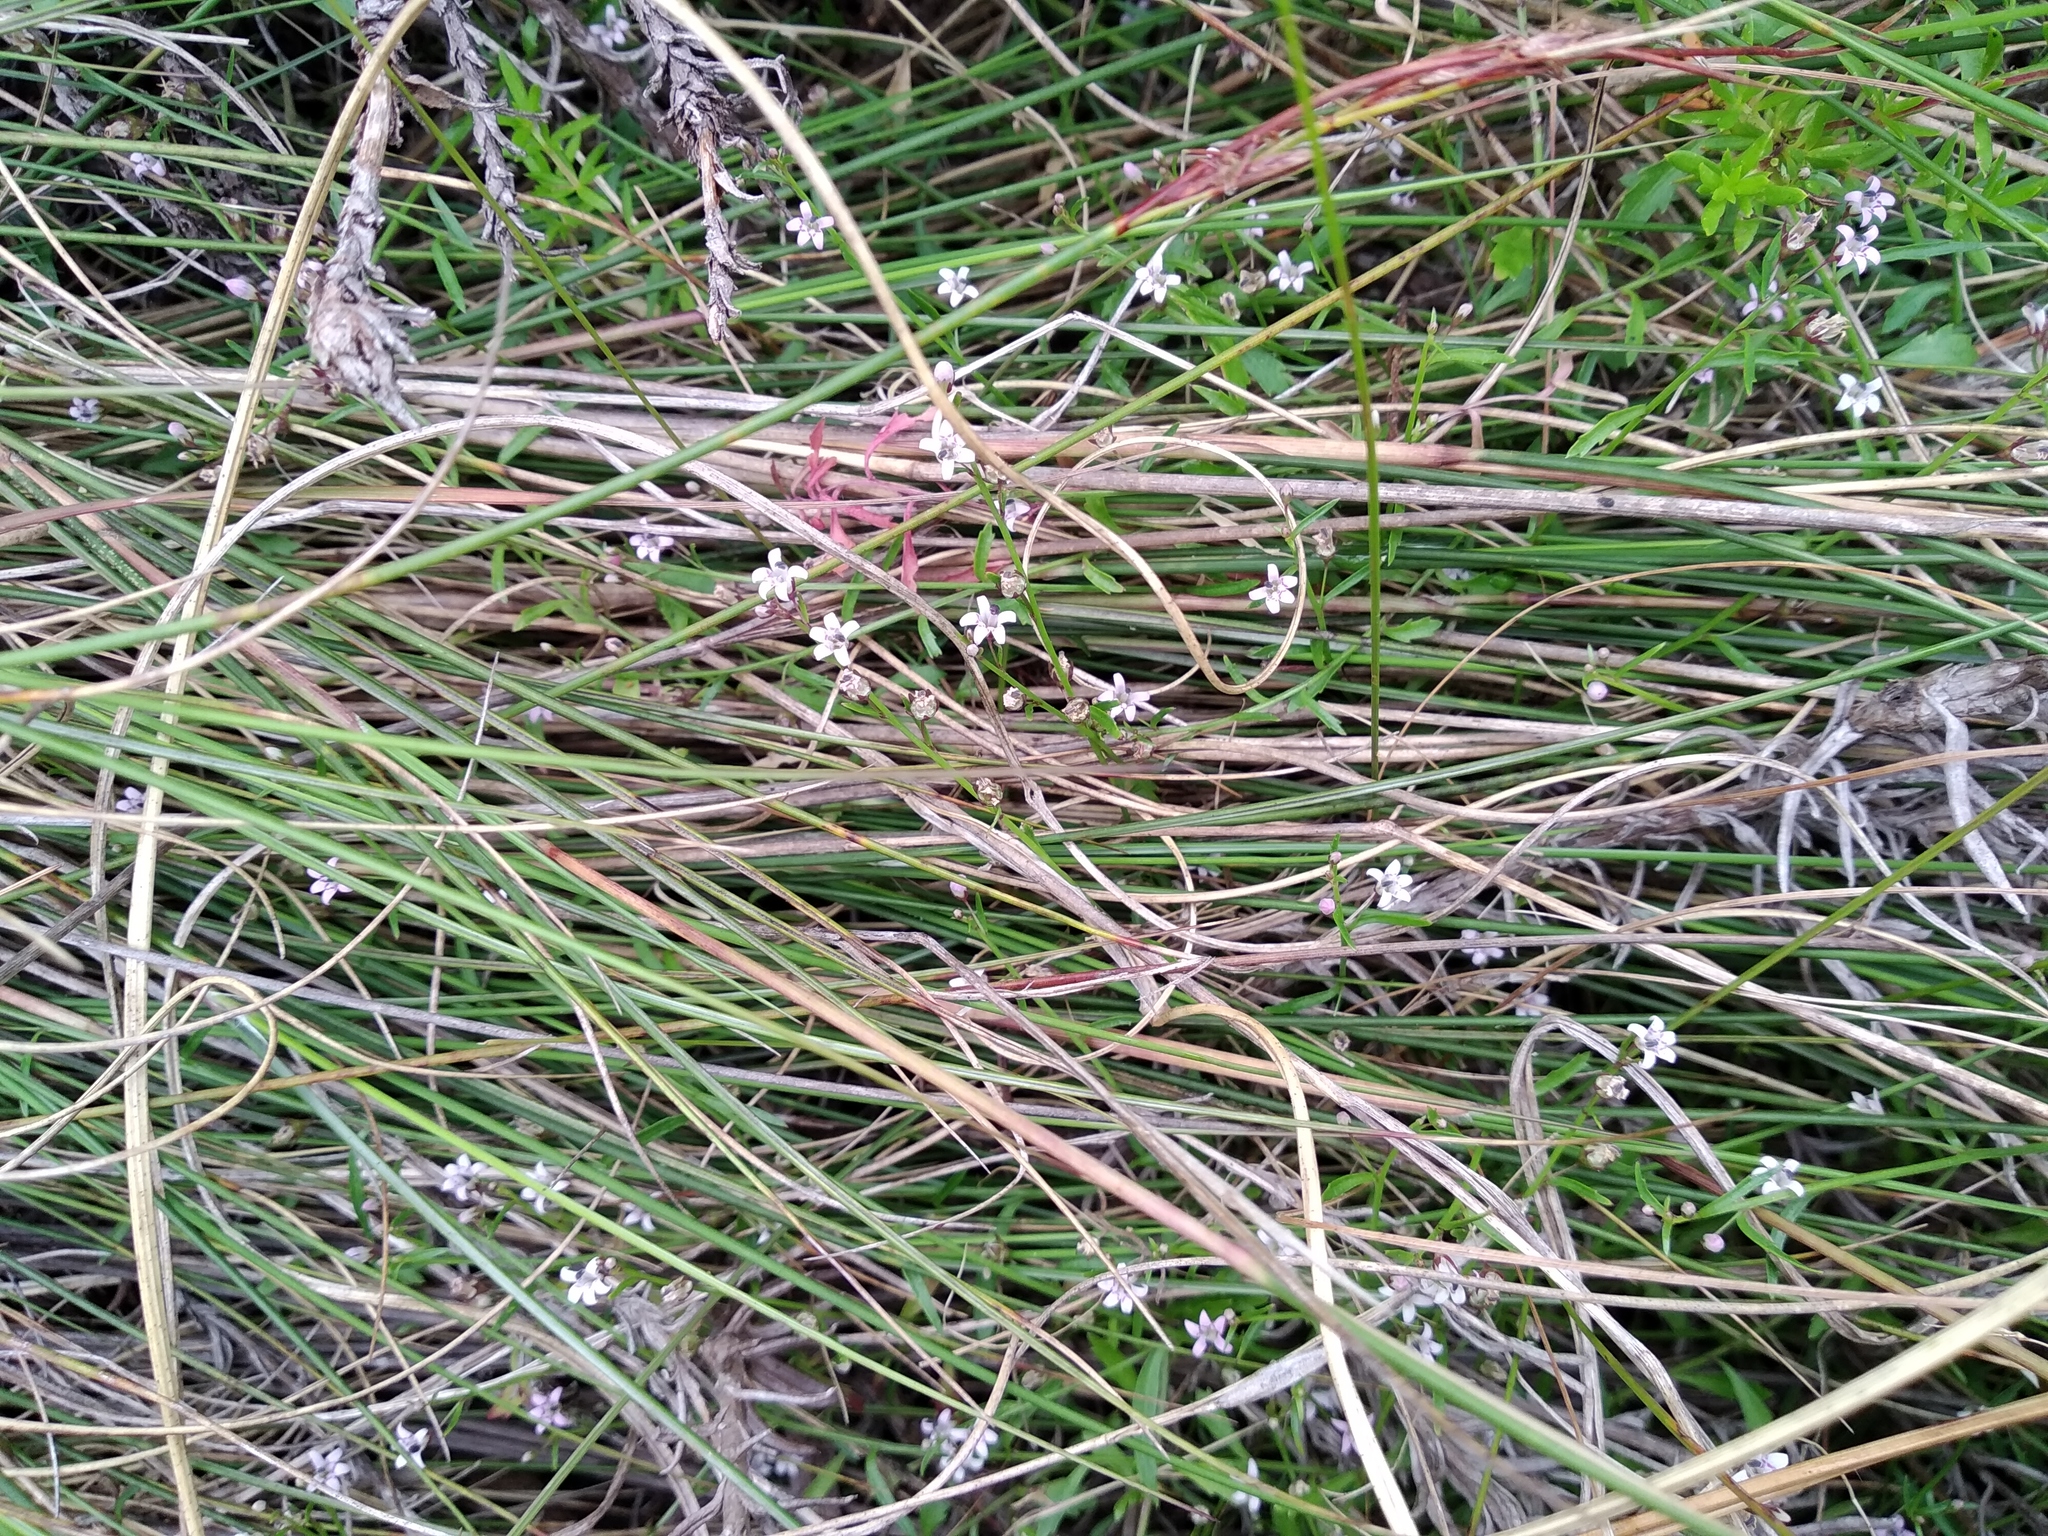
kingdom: Plantae
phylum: Tracheophyta
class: Magnoliopsida
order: Asterales
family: Campanulaceae
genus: Lobelia
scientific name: Lobelia eckloniana
